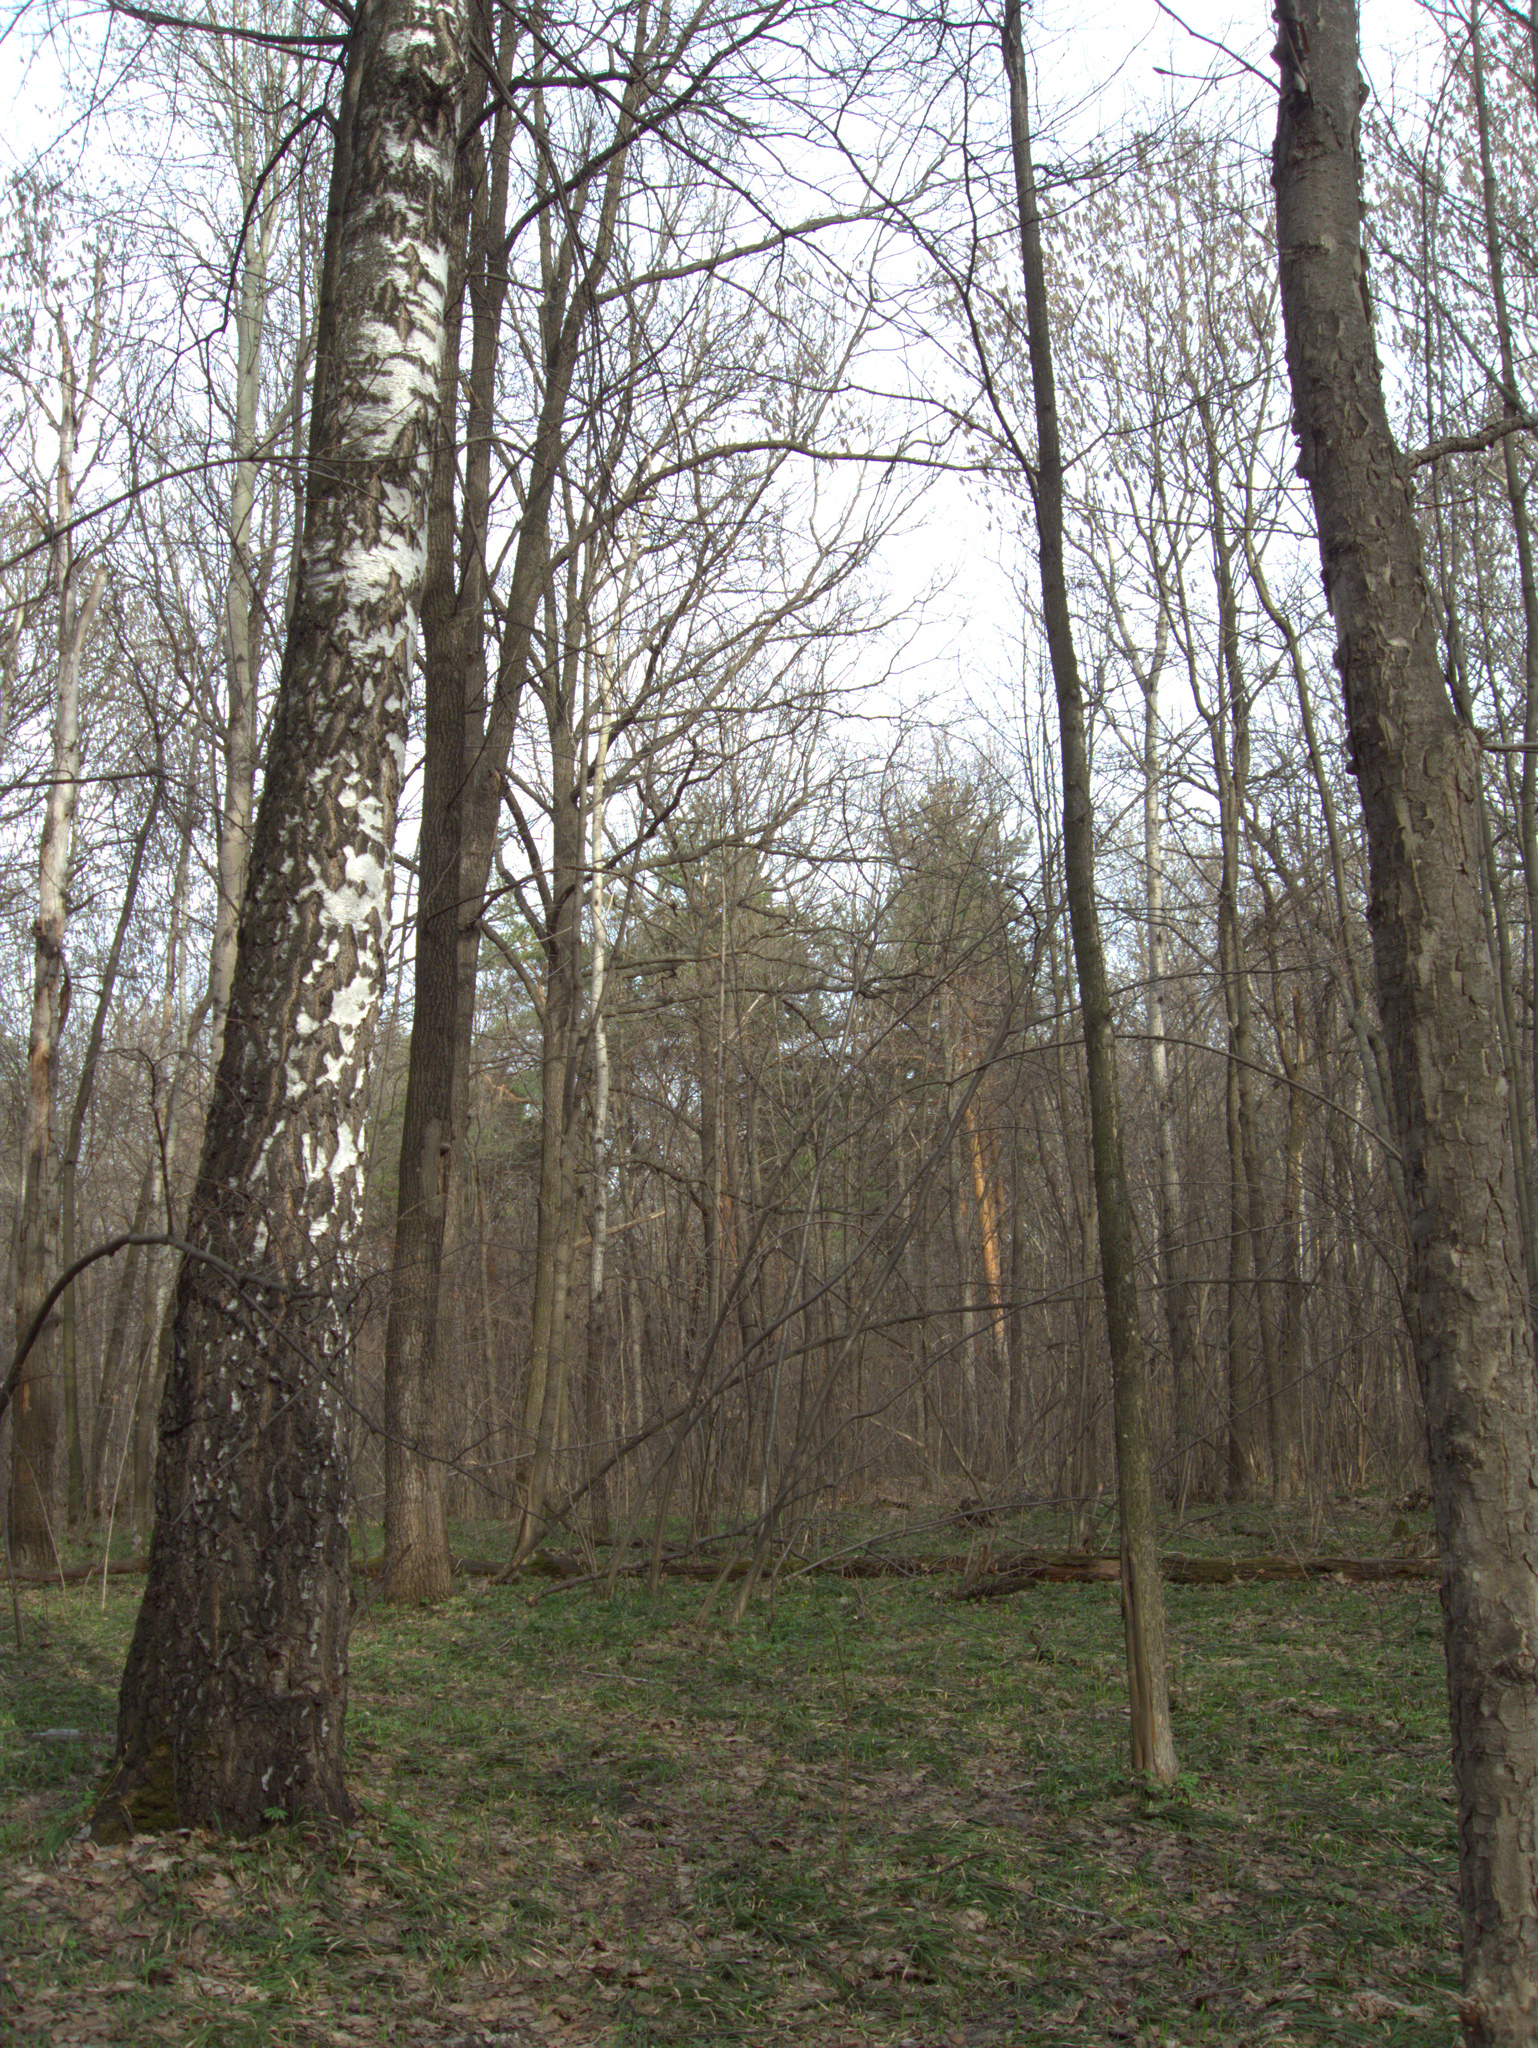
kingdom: Plantae
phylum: Tracheophyta
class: Magnoliopsida
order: Fagales
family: Betulaceae
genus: Betula
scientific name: Betula pendula
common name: Silver birch
